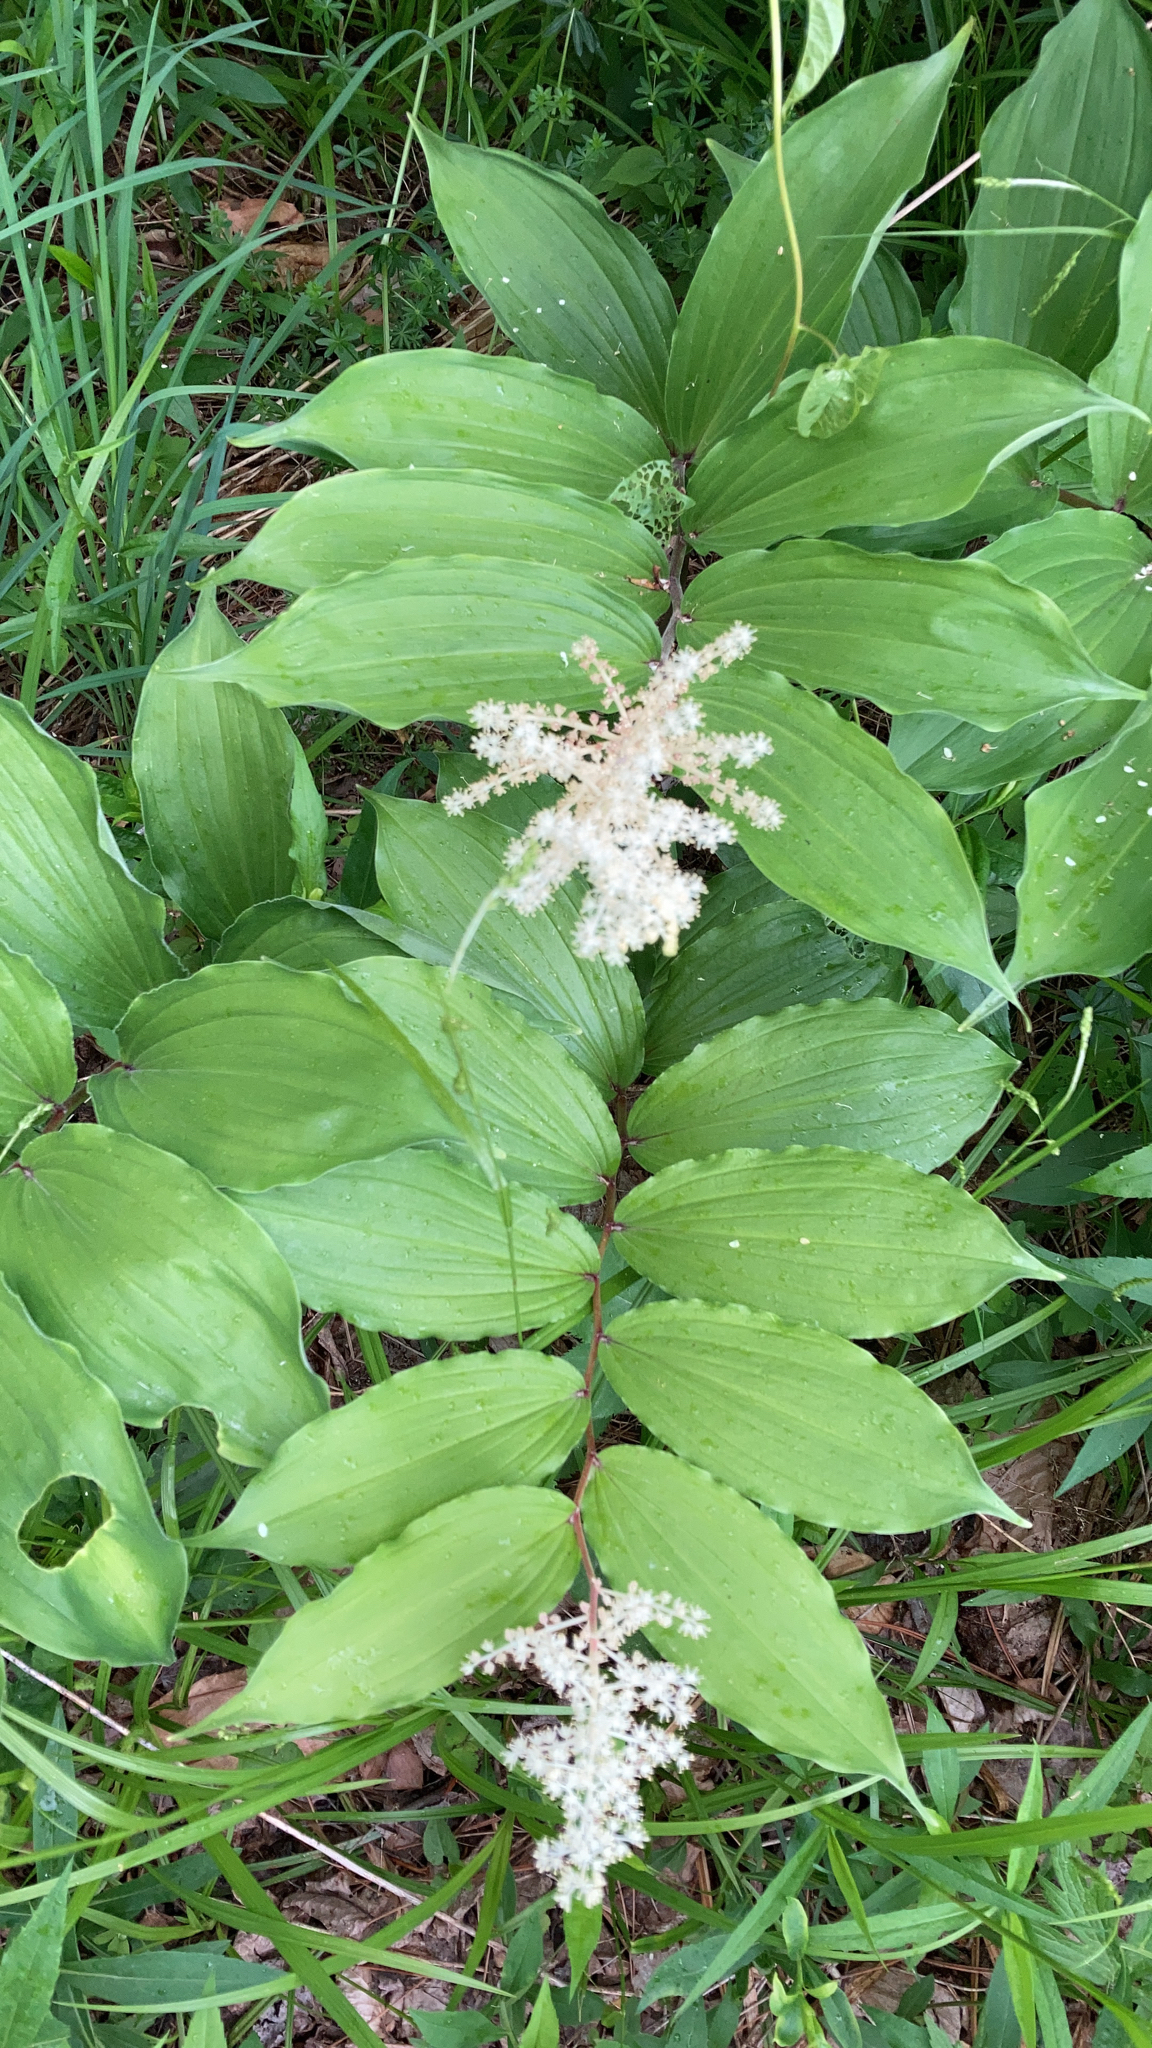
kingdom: Plantae
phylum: Tracheophyta
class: Liliopsida
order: Asparagales
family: Asparagaceae
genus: Maianthemum
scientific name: Maianthemum racemosum
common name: False spikenard
